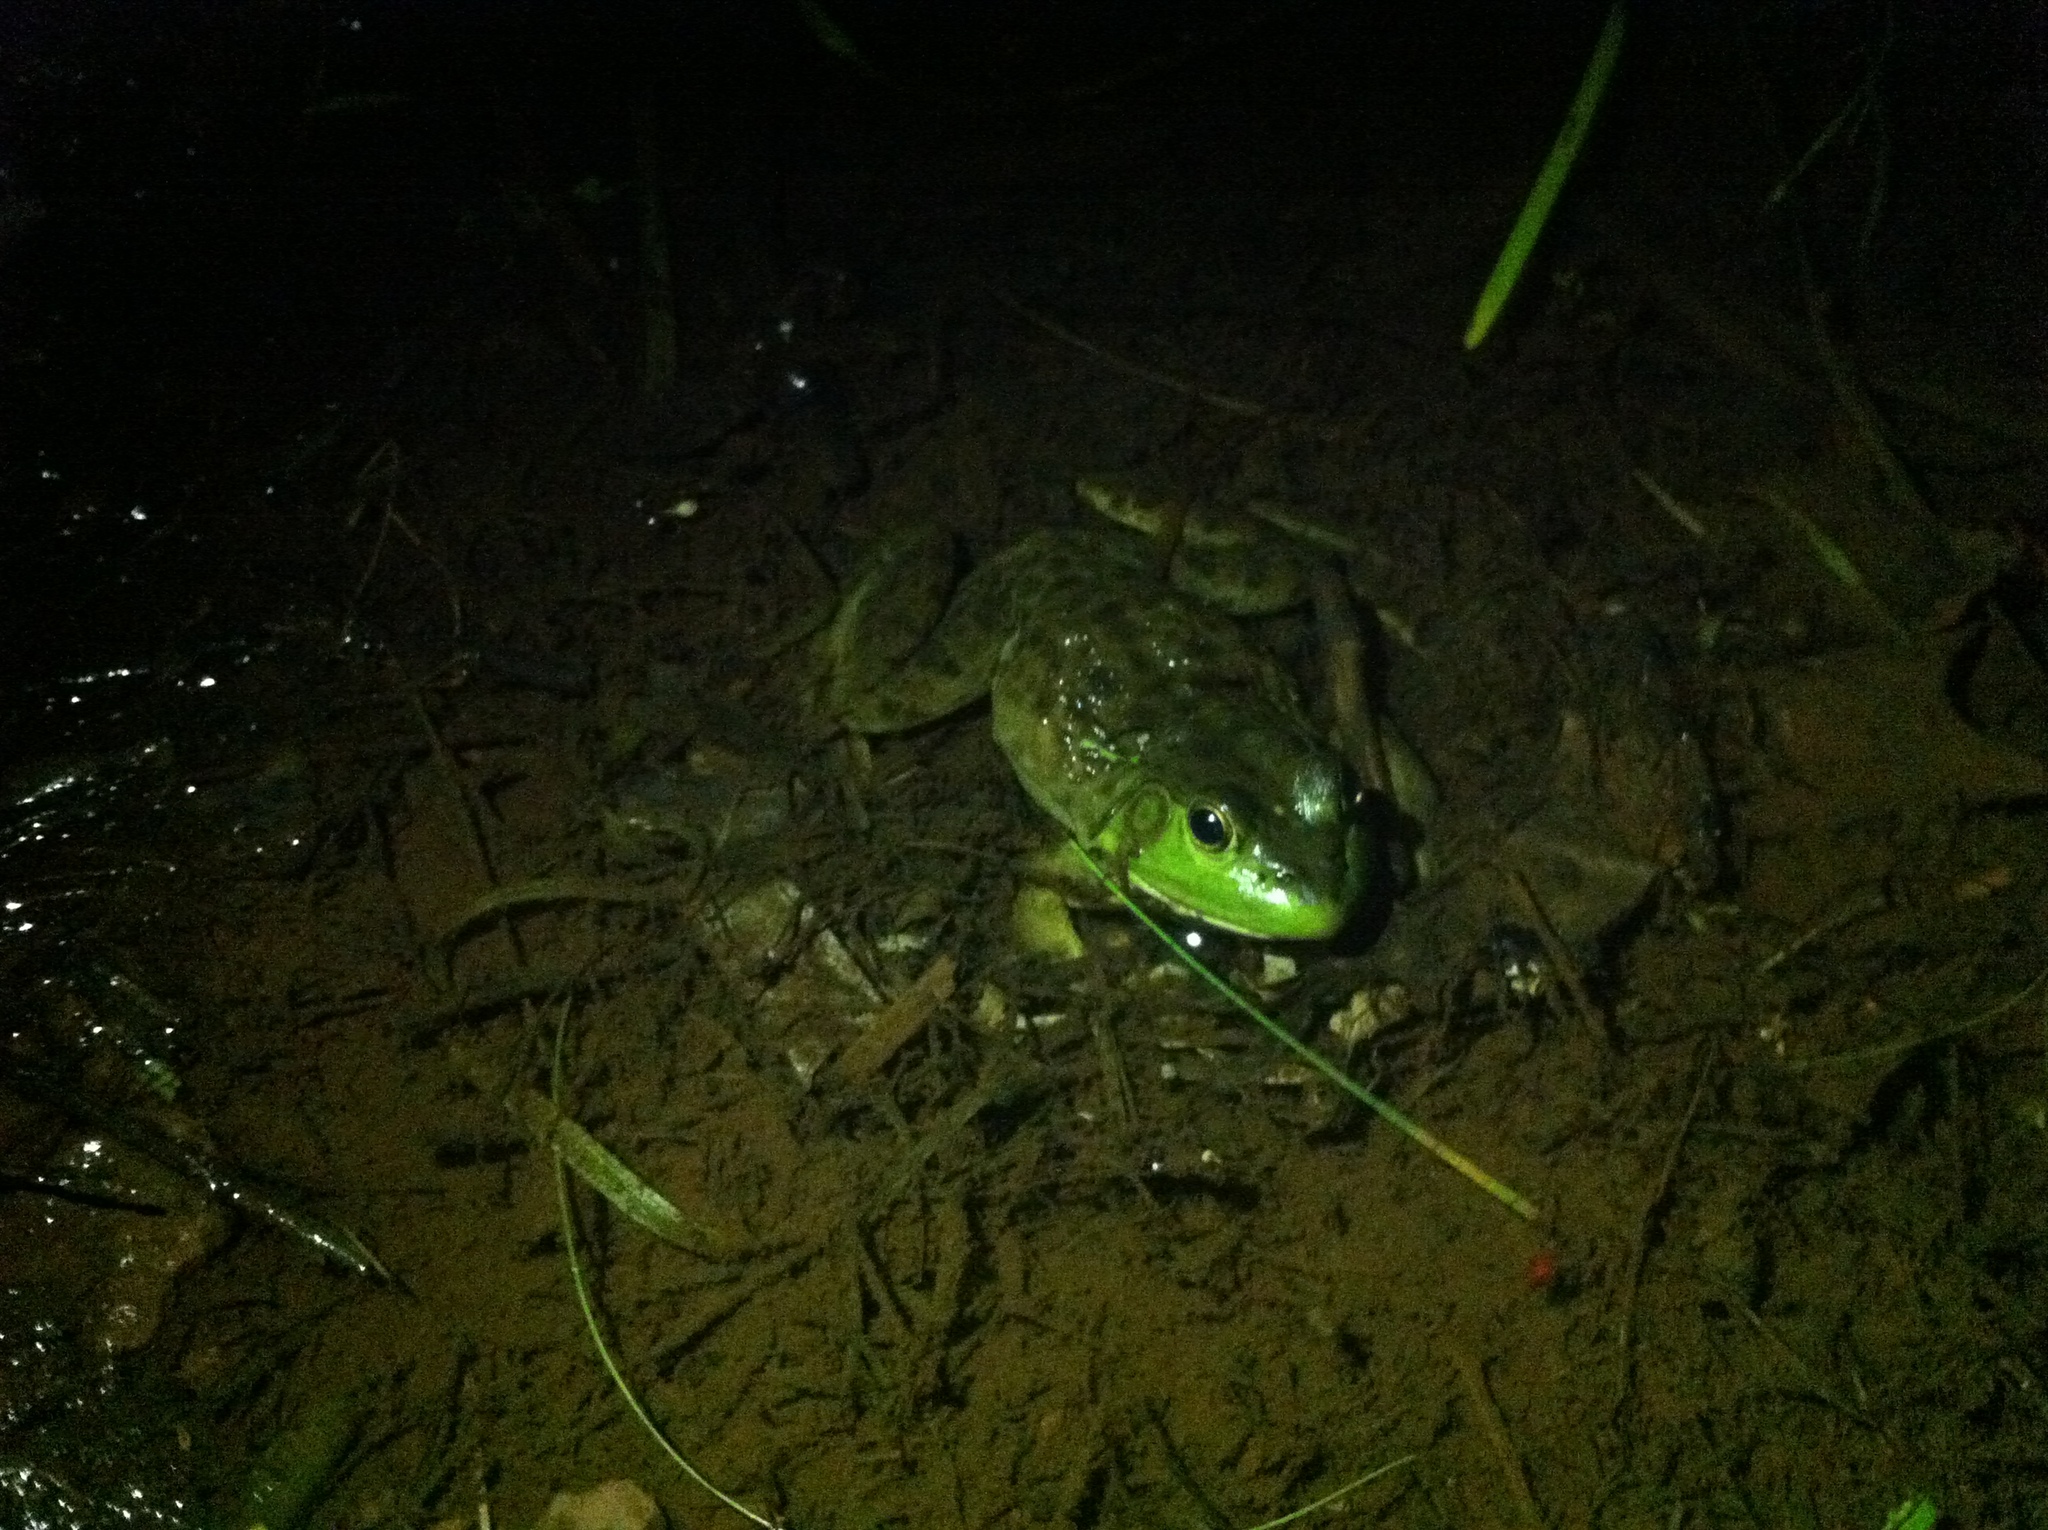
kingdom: Animalia
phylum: Chordata
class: Amphibia
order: Anura
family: Ranidae
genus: Lithobates
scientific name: Lithobates catesbeianus
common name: American bullfrog
